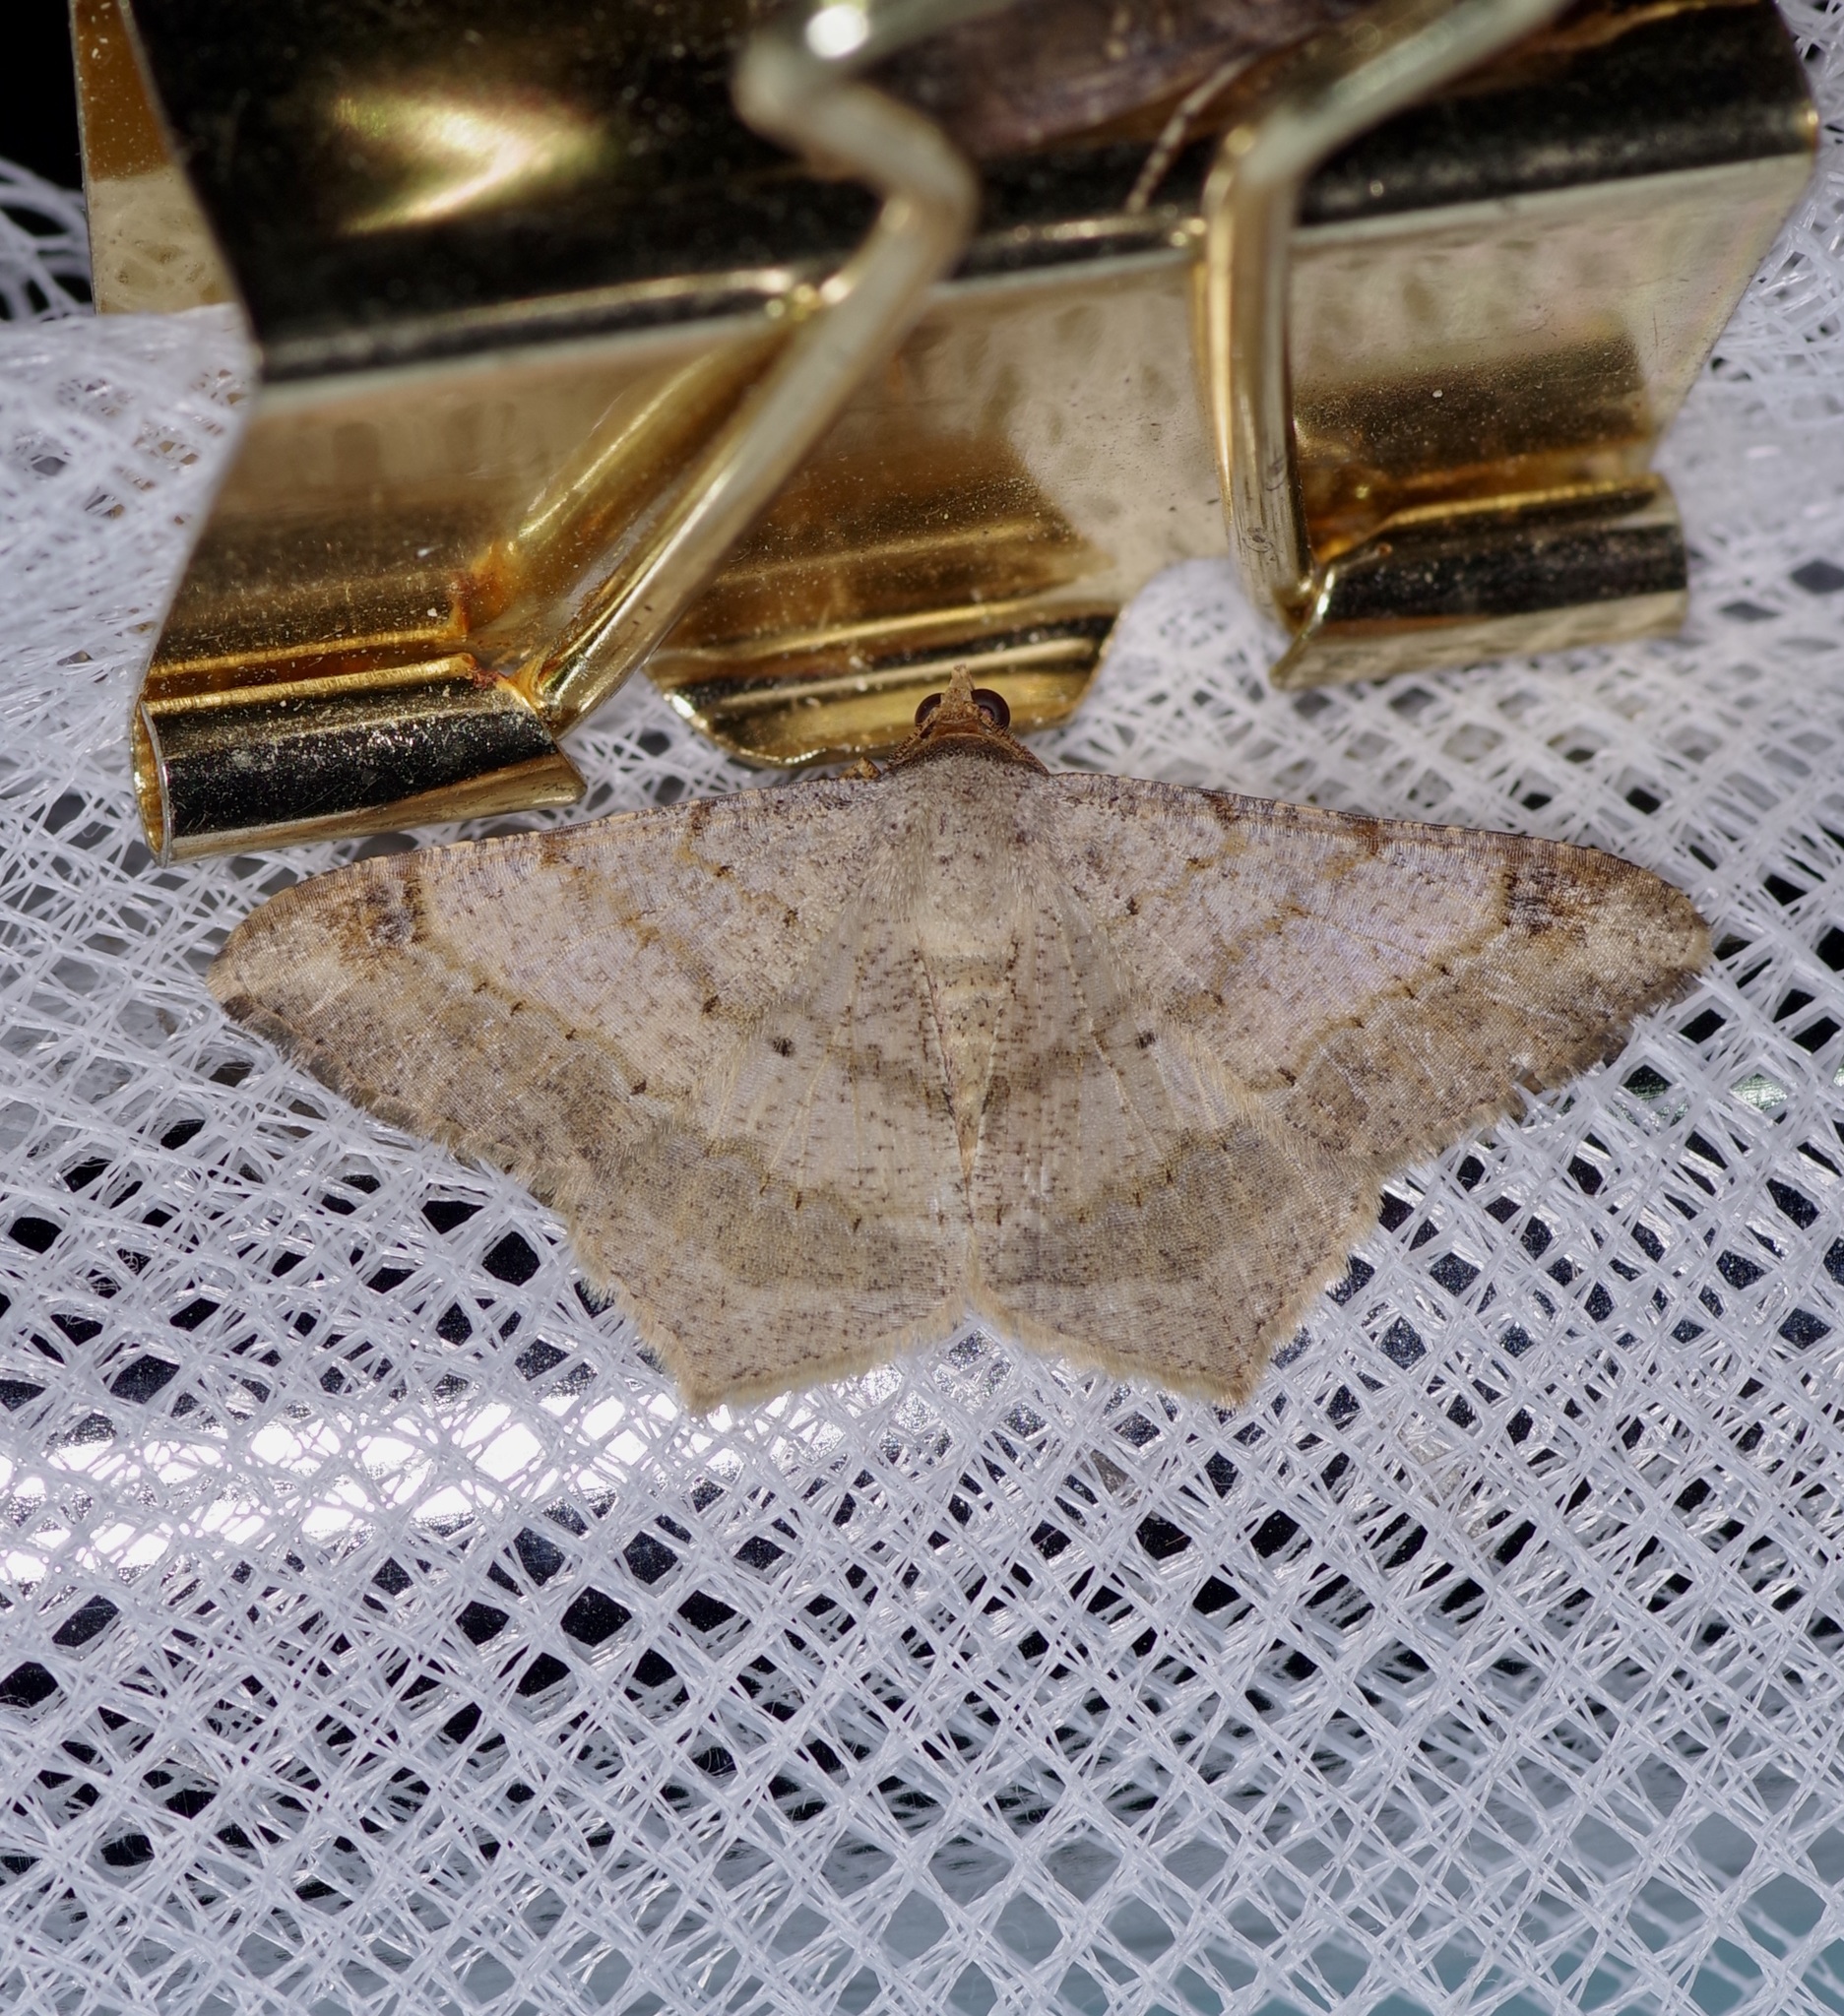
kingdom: Animalia
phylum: Arthropoda
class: Insecta
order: Lepidoptera
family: Geometridae
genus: Macaria
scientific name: Macaria abydata
